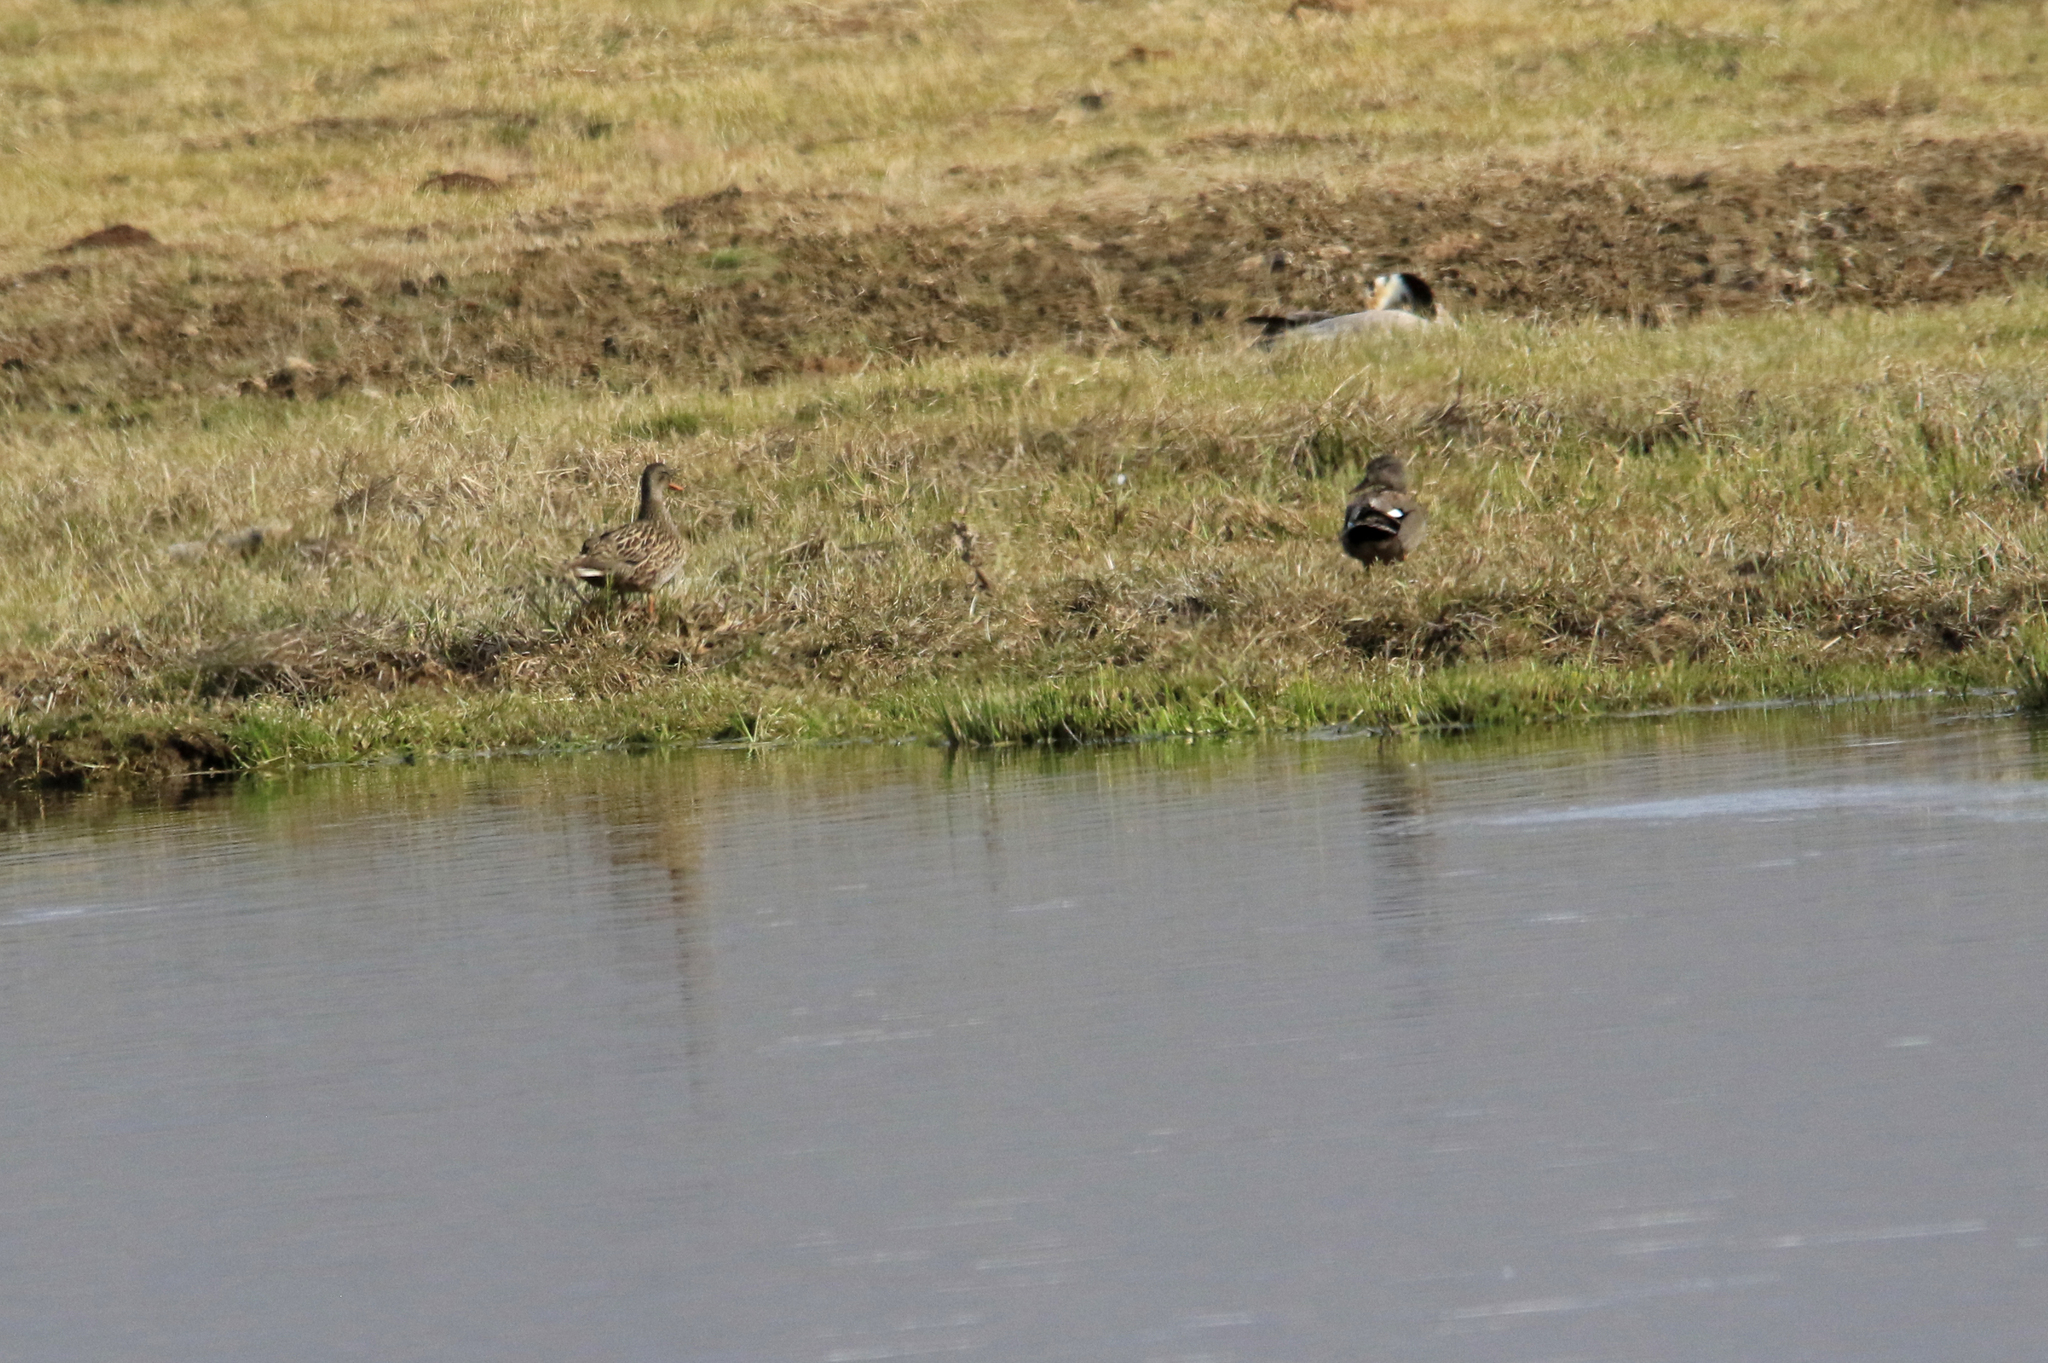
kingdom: Animalia
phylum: Chordata
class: Aves
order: Anseriformes
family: Anatidae
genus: Mareca
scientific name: Mareca strepera
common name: Gadwall
